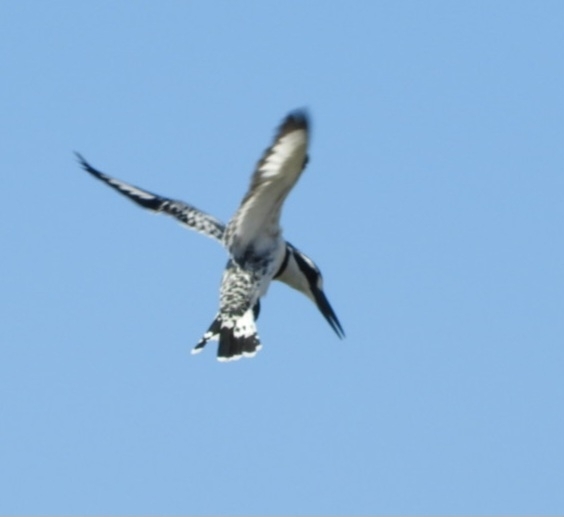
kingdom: Animalia
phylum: Chordata
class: Aves
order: Coraciiformes
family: Alcedinidae
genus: Ceryle
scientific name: Ceryle rudis
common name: Pied kingfisher
